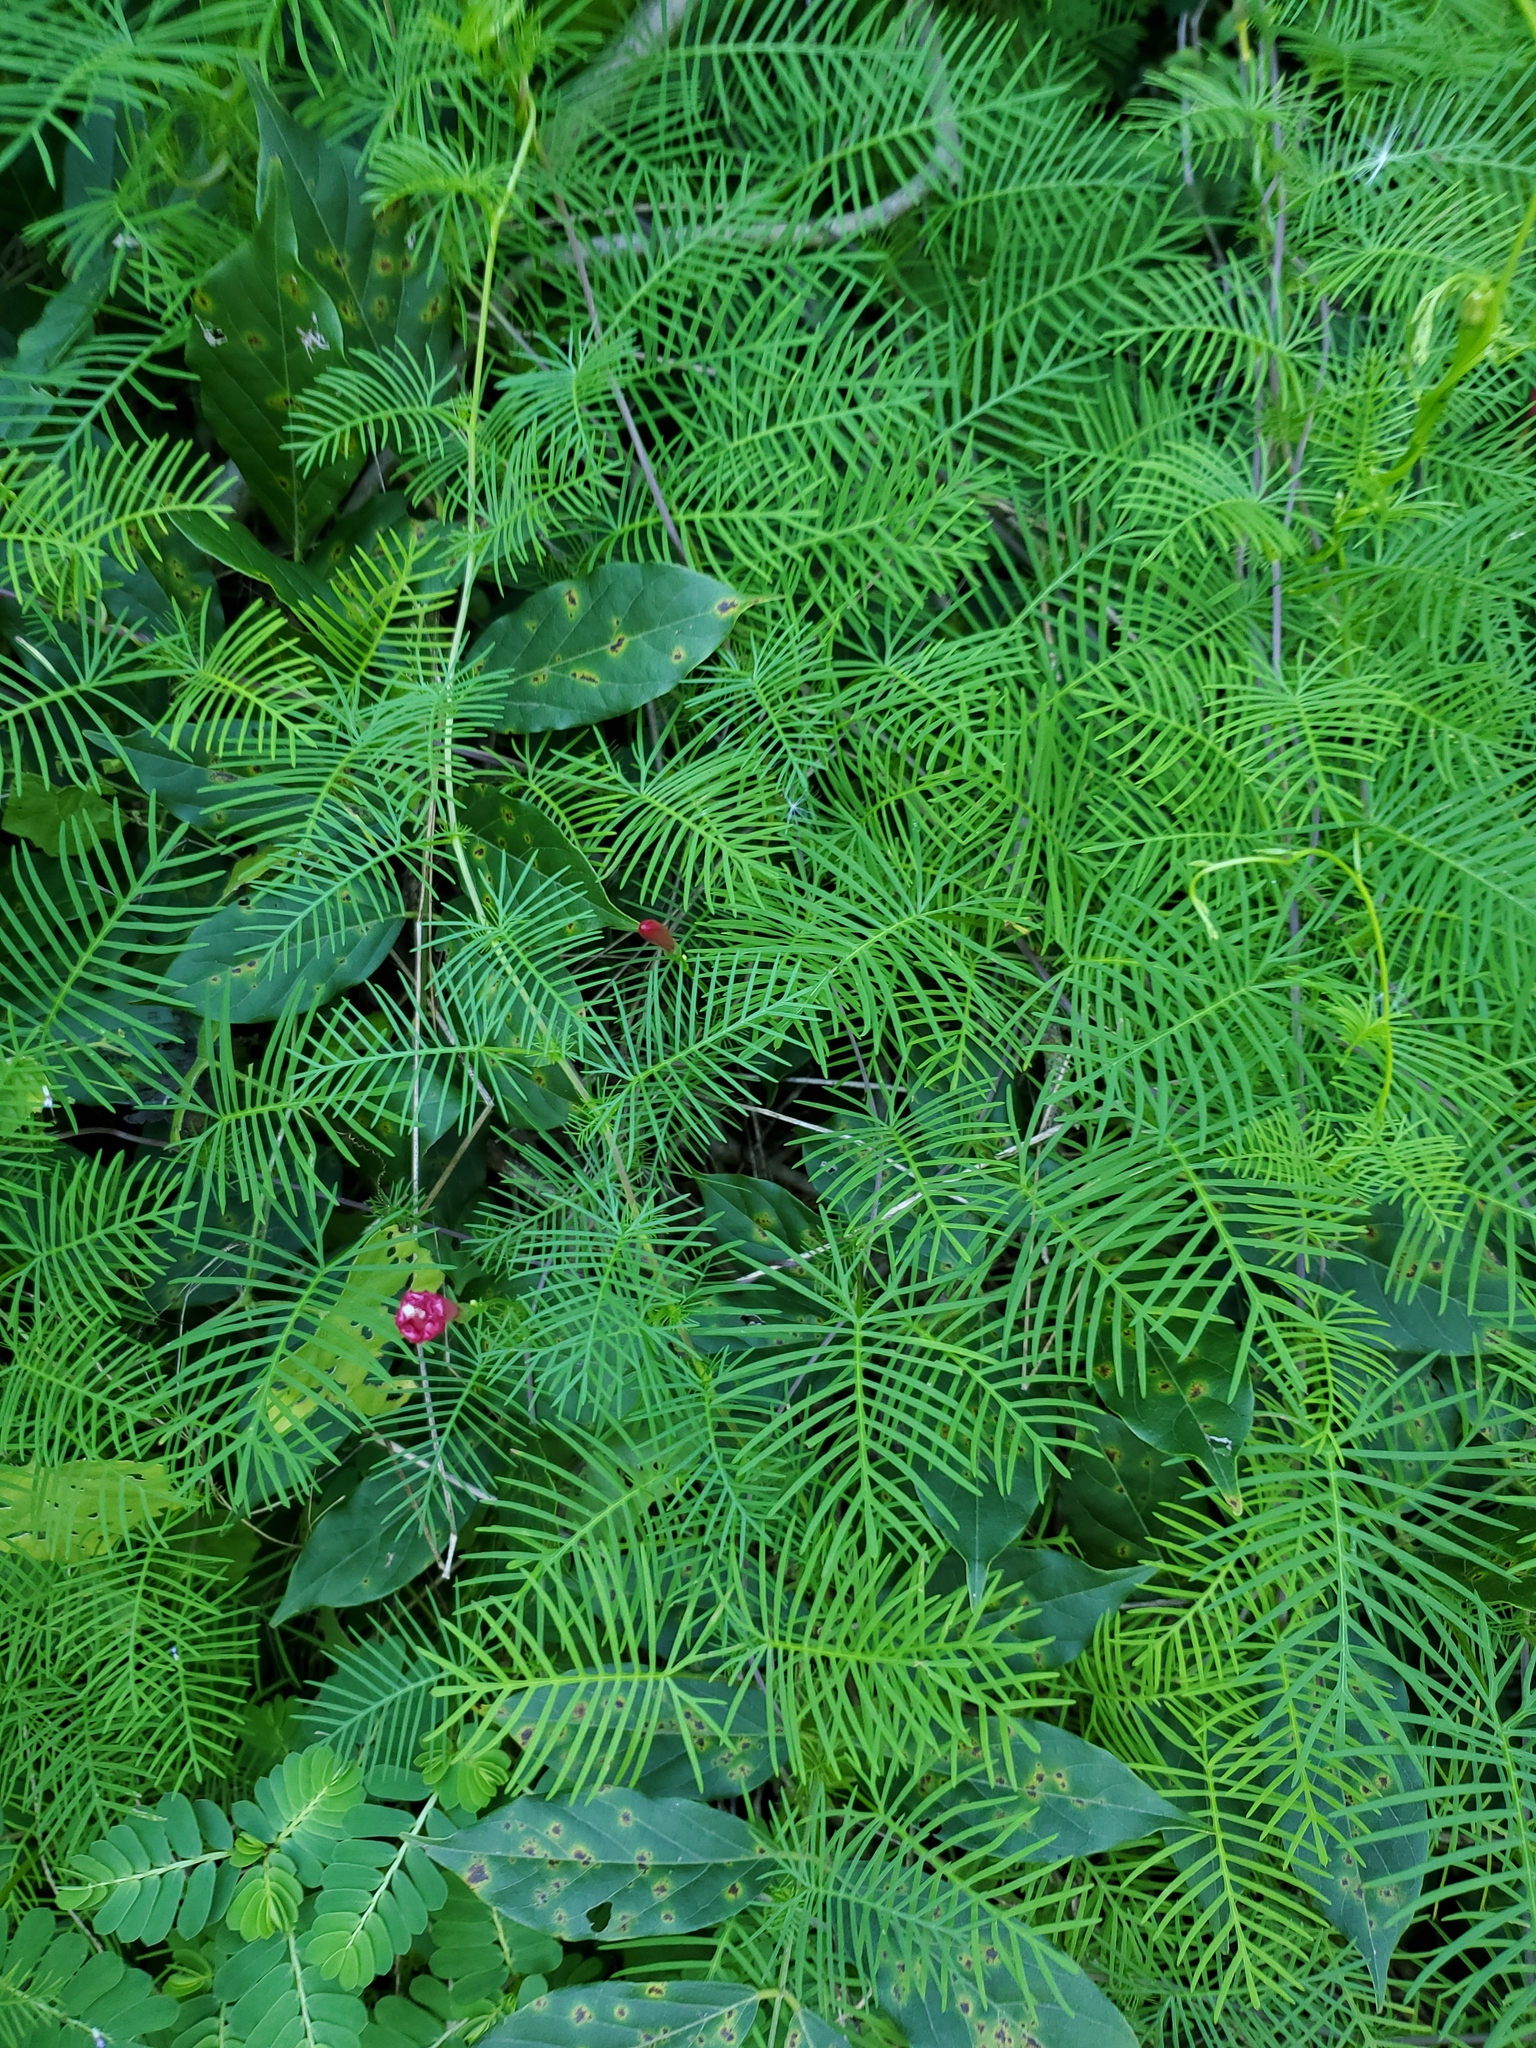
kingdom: Plantae
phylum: Tracheophyta
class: Magnoliopsida
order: Solanales
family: Convolvulaceae
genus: Ipomoea
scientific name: Ipomoea quamoclit
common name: Cypress vine
